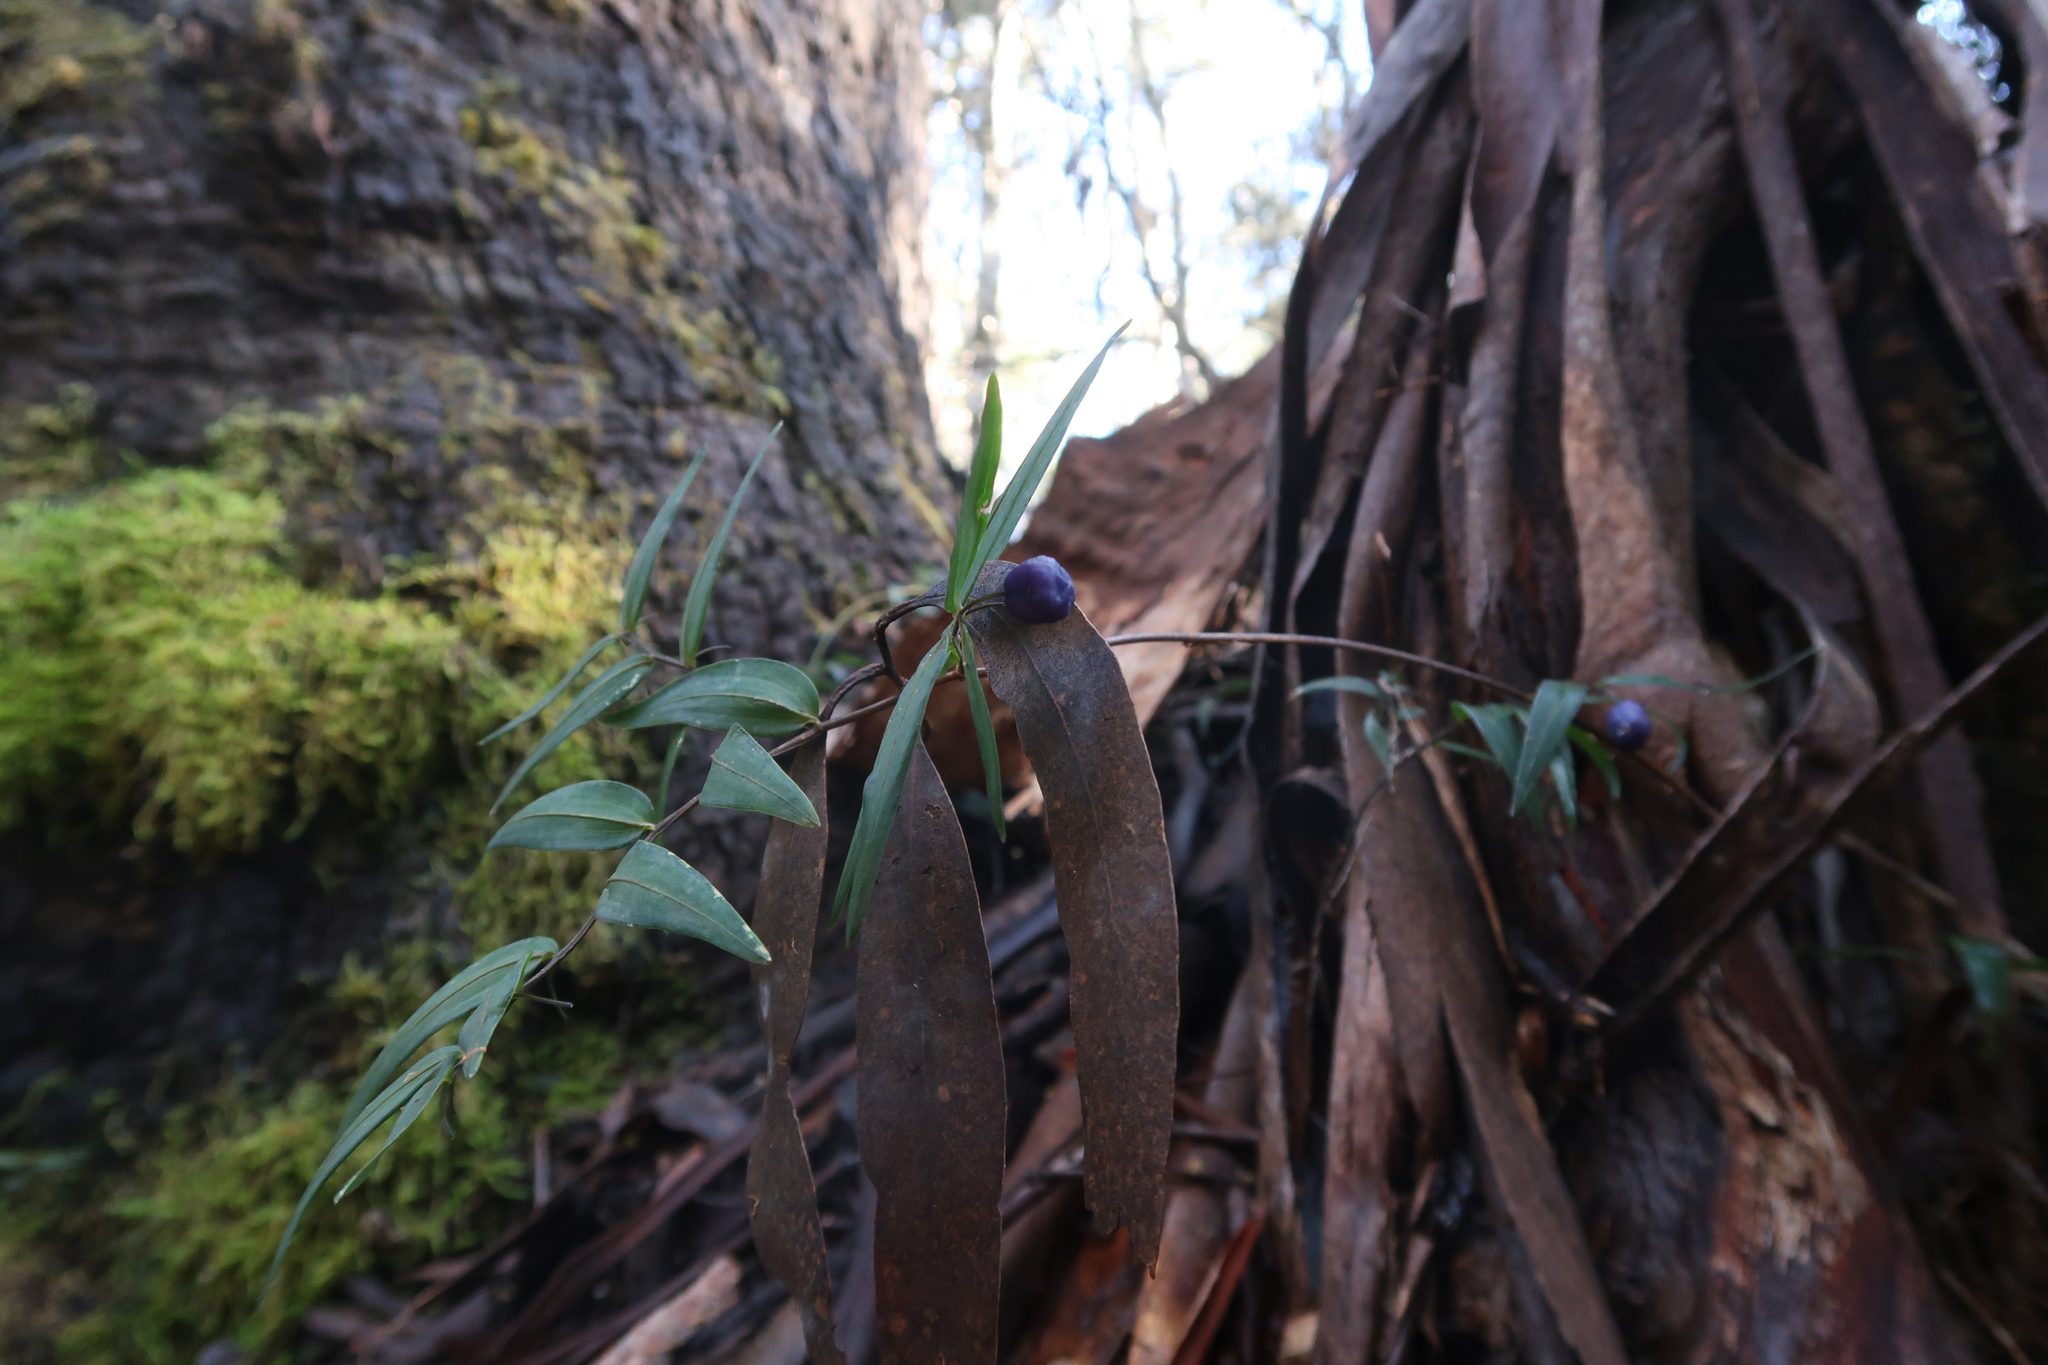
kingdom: Plantae
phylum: Tracheophyta
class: Liliopsida
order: Liliales
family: Alstroemeriaceae
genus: Drymophila
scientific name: Drymophila cyanocarpa
